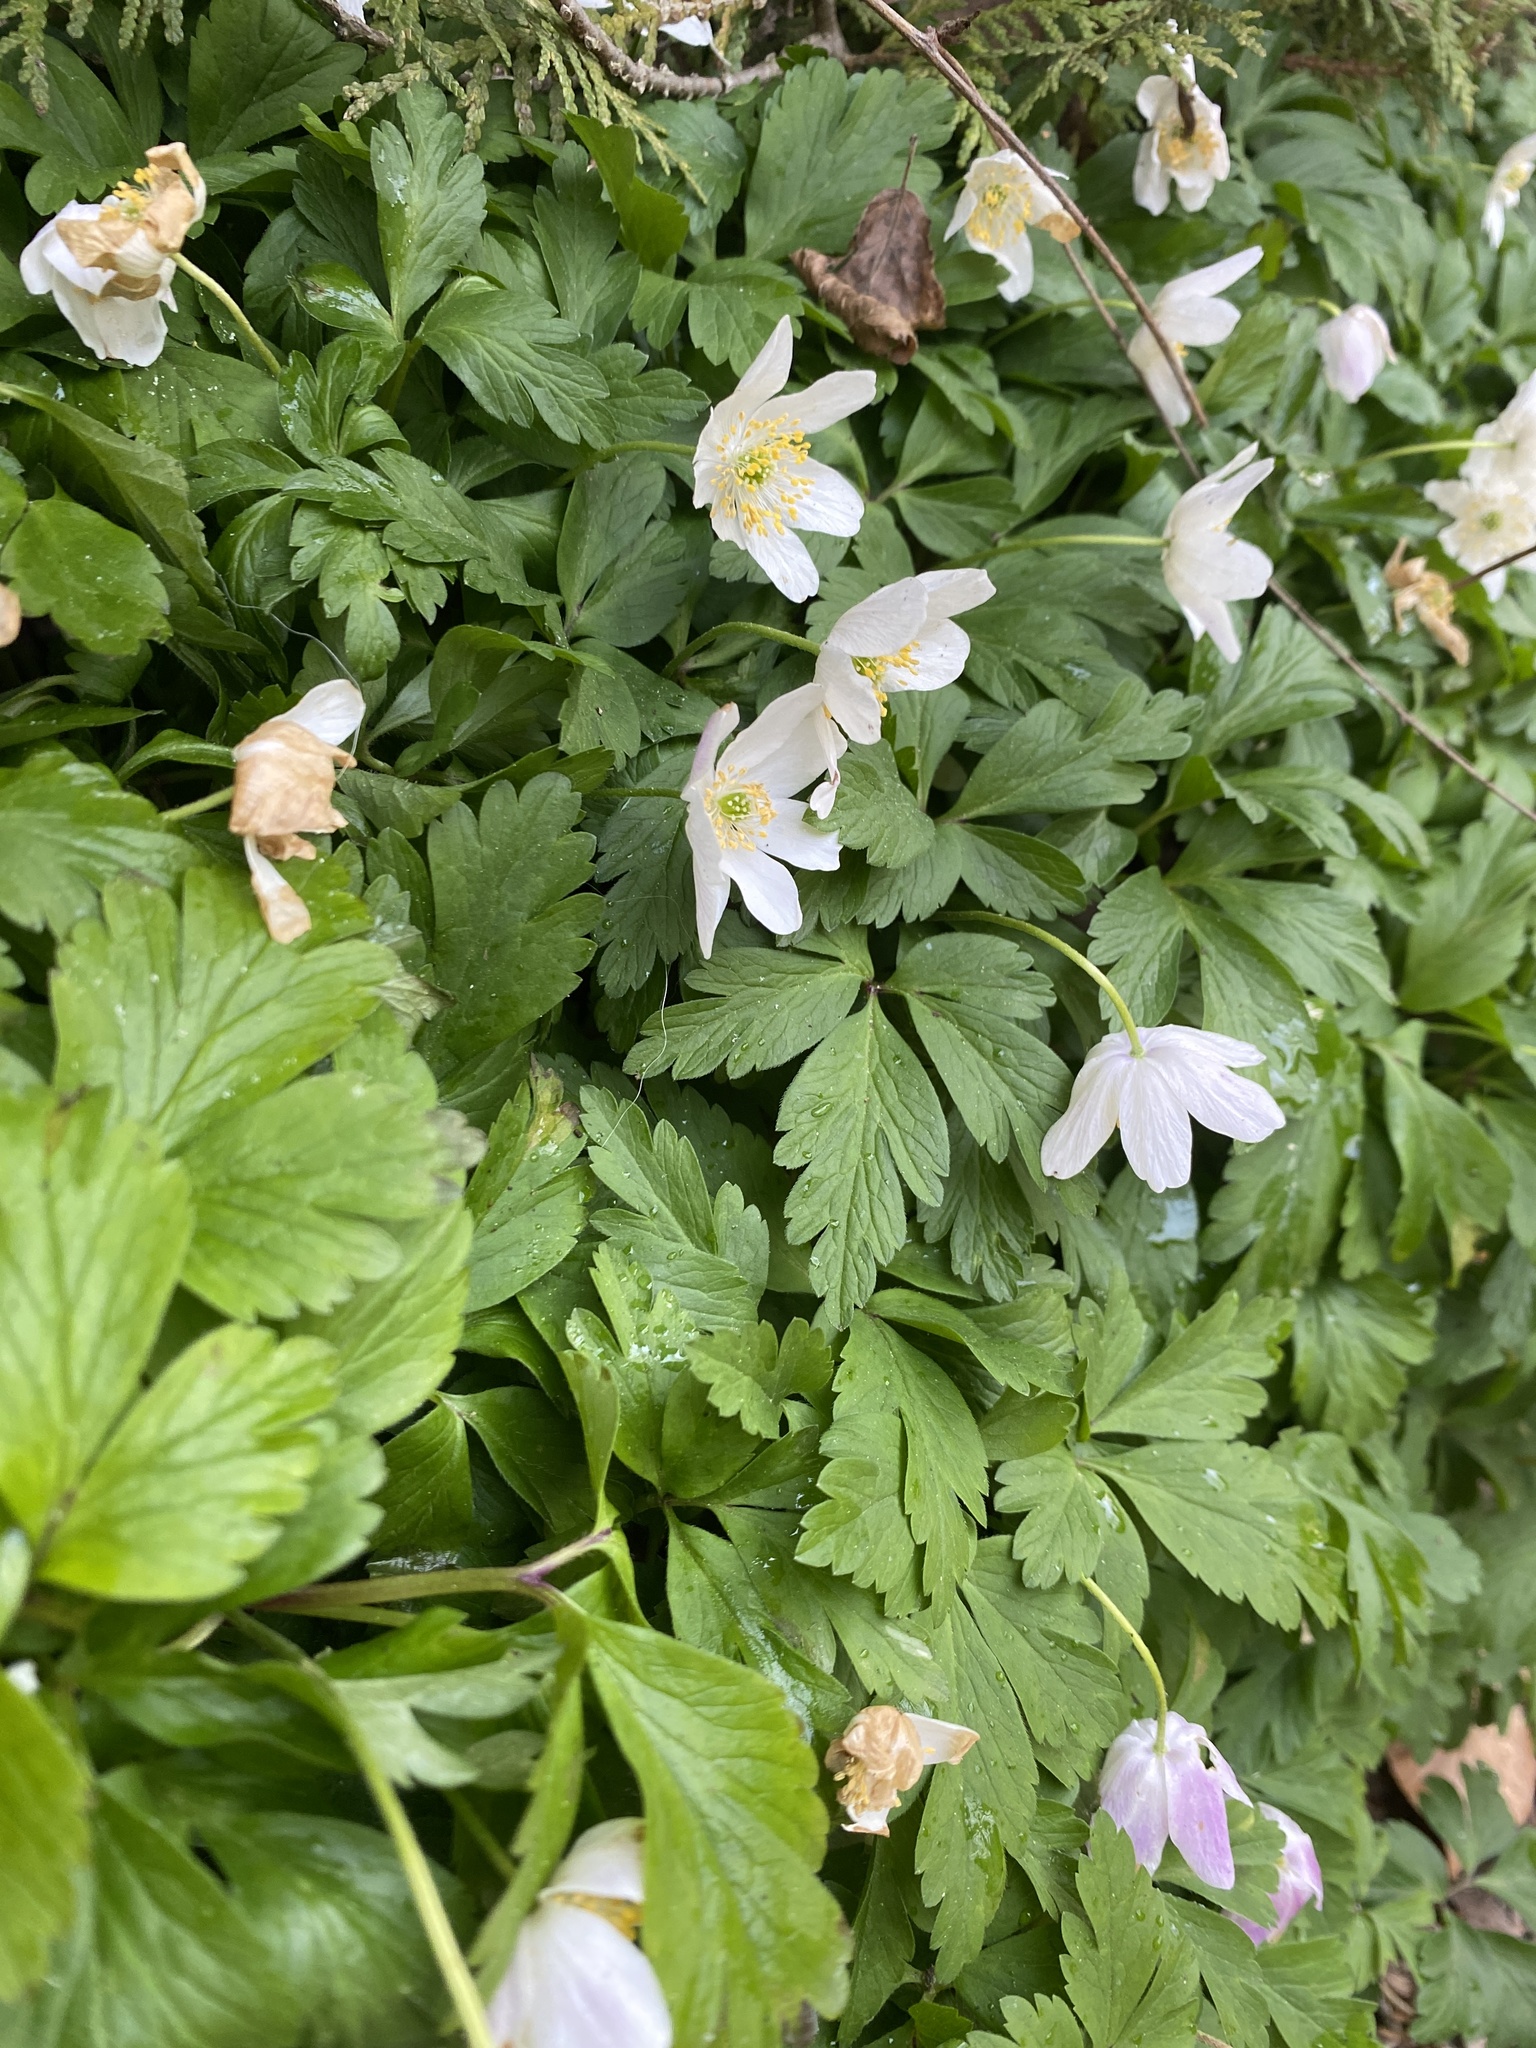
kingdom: Plantae
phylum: Tracheophyta
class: Magnoliopsida
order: Ranunculales
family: Ranunculaceae
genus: Anemone
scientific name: Anemone nemorosa
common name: Wood anemone
